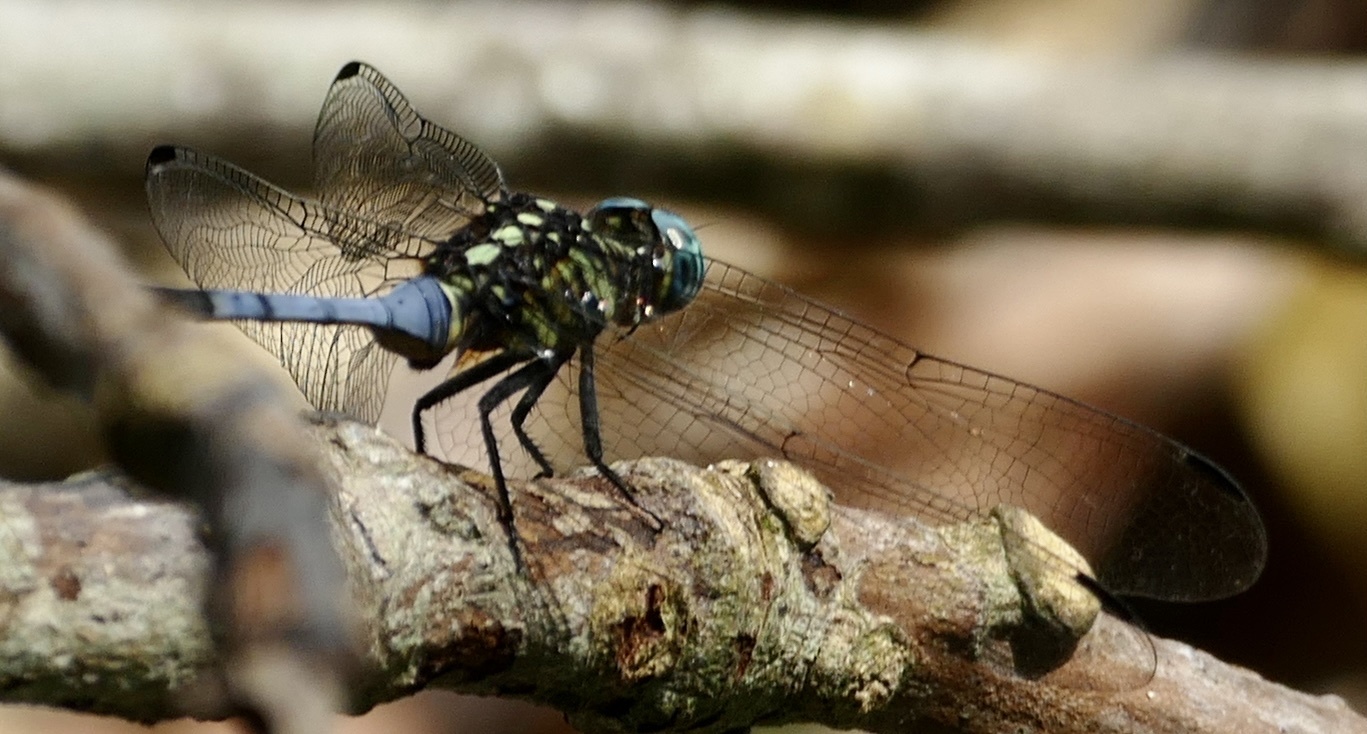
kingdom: Animalia
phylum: Arthropoda
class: Insecta
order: Odonata
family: Libellulidae
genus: Orthetrum
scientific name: Orthetrum stemmale
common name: Bold skimmer
